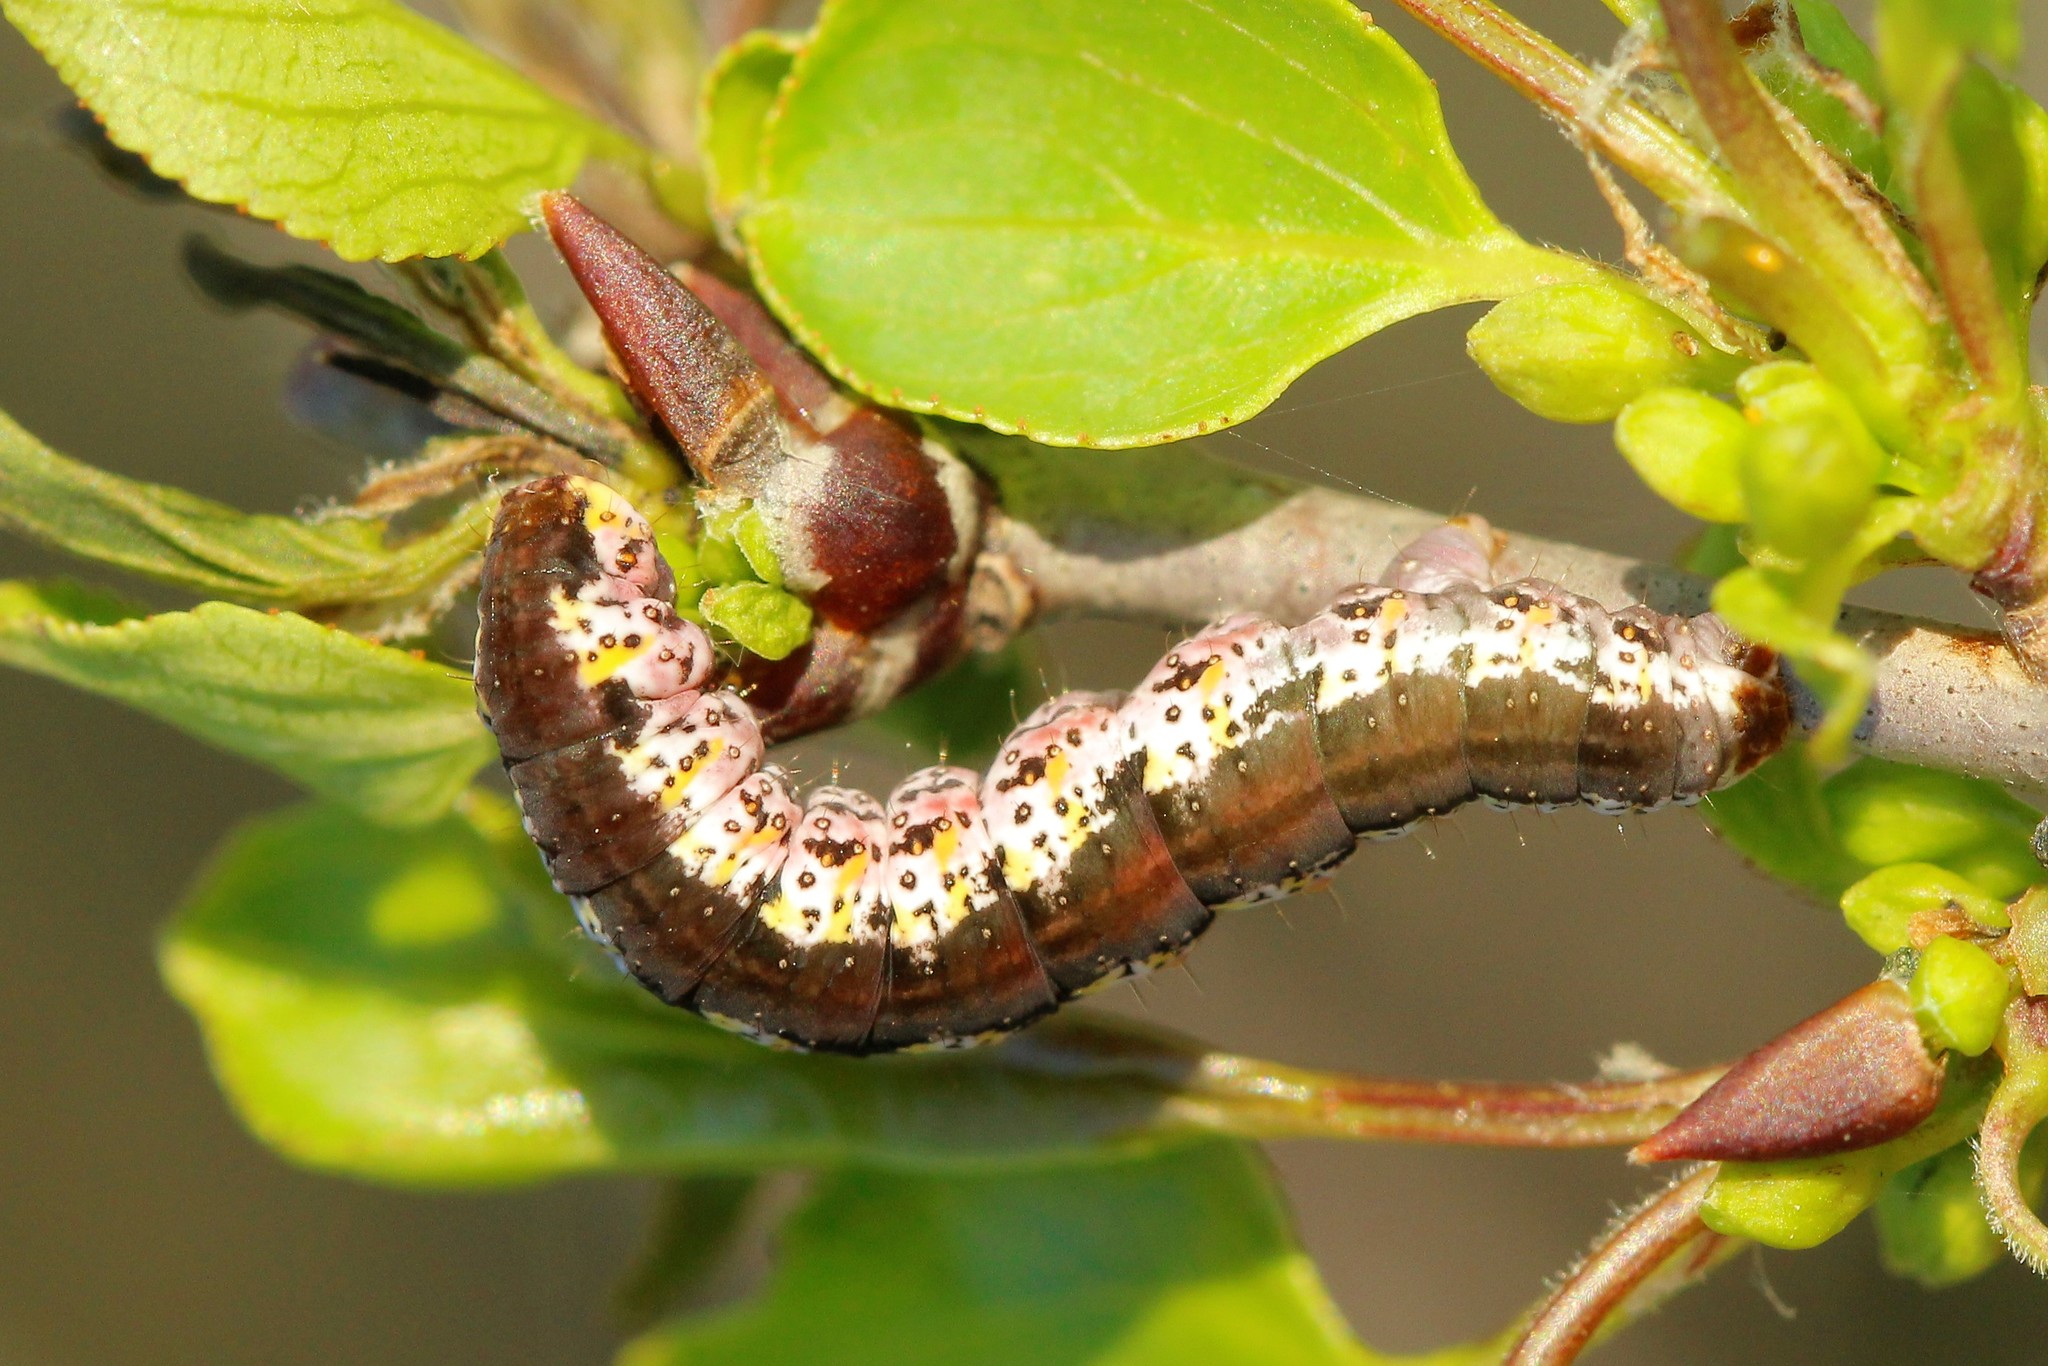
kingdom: Animalia
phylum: Arthropoda
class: Insecta
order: Lepidoptera
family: Geometridae
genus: Rheumaptera
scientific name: Rheumaptera Hydria cervinalis
